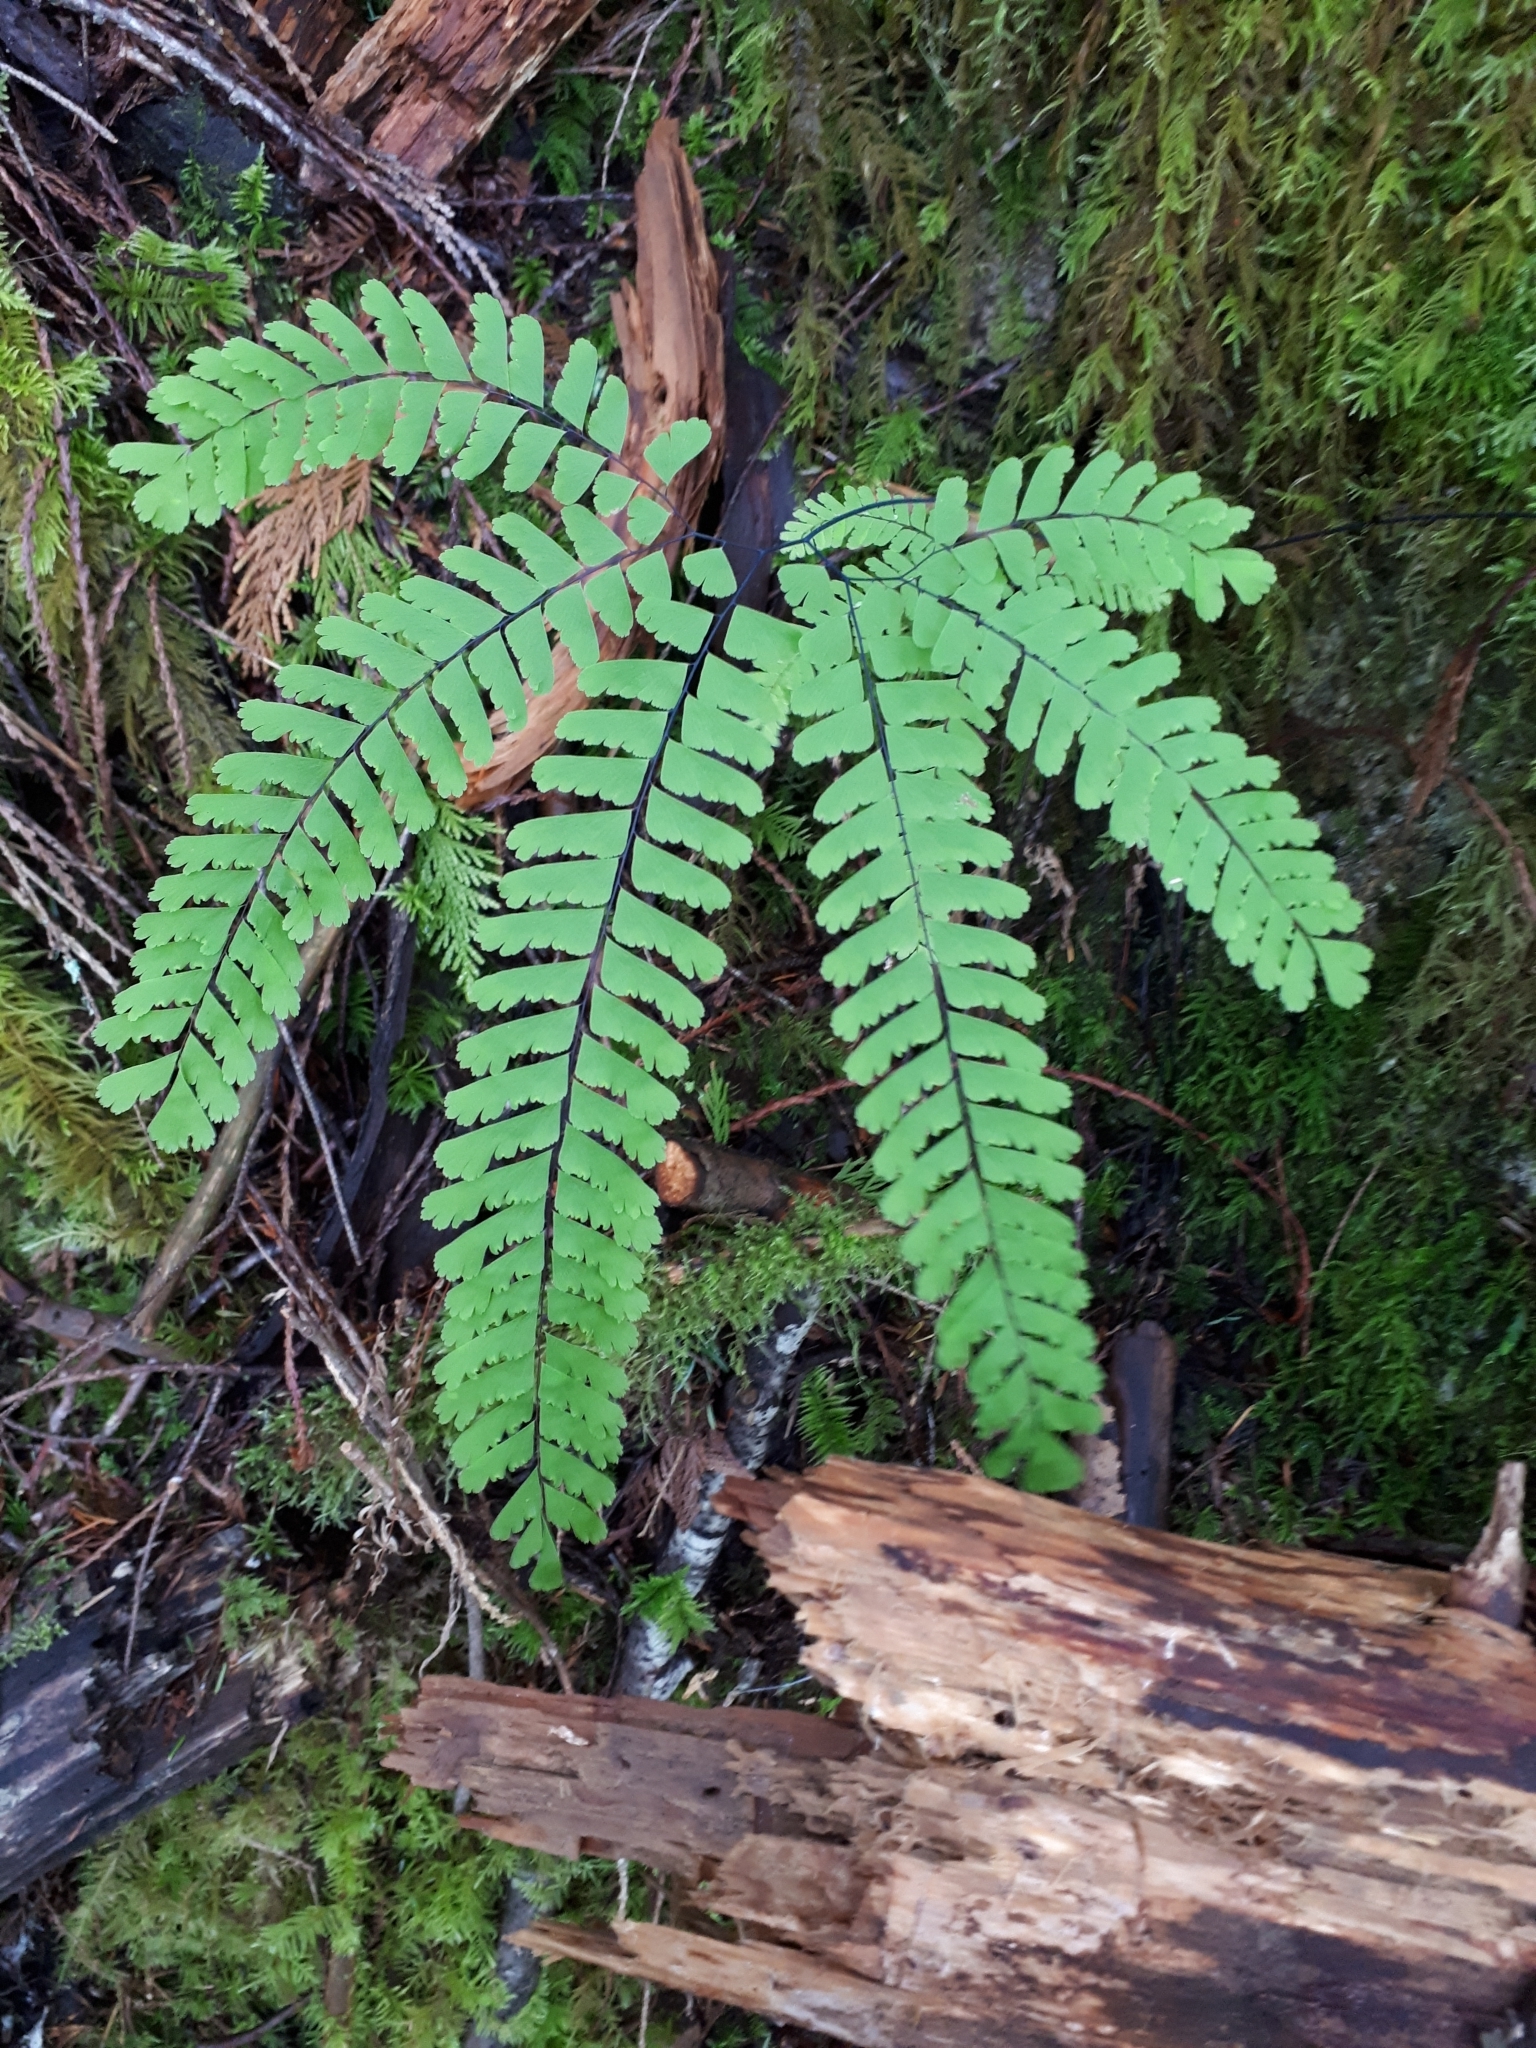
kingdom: Plantae
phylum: Tracheophyta
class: Polypodiopsida
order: Polypodiales
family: Pteridaceae
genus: Adiantum
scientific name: Adiantum aleuticum
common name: Aleutian maidenhair fern
